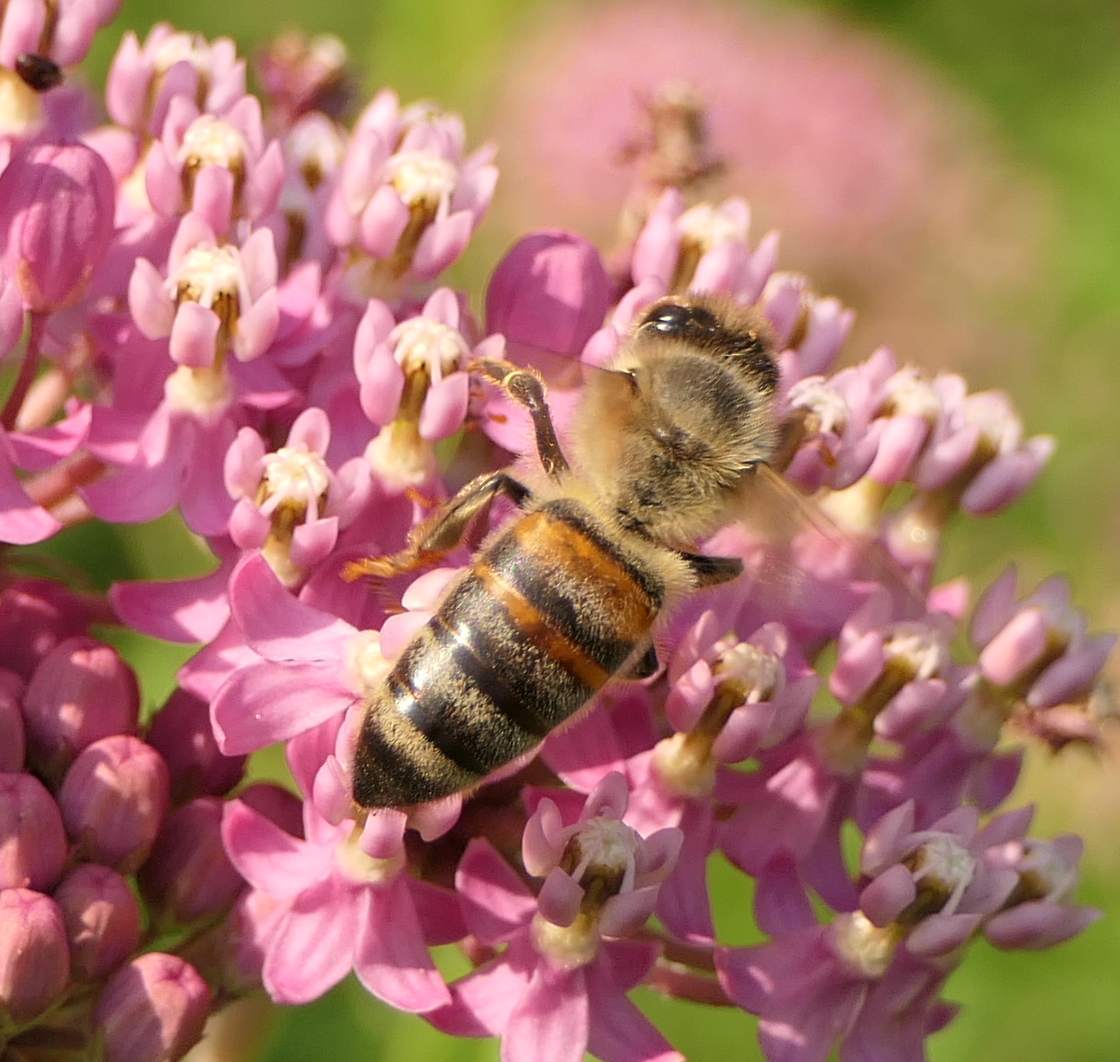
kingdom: Animalia
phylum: Arthropoda
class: Insecta
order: Hymenoptera
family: Apidae
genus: Apis
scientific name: Apis mellifera
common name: Honey bee
